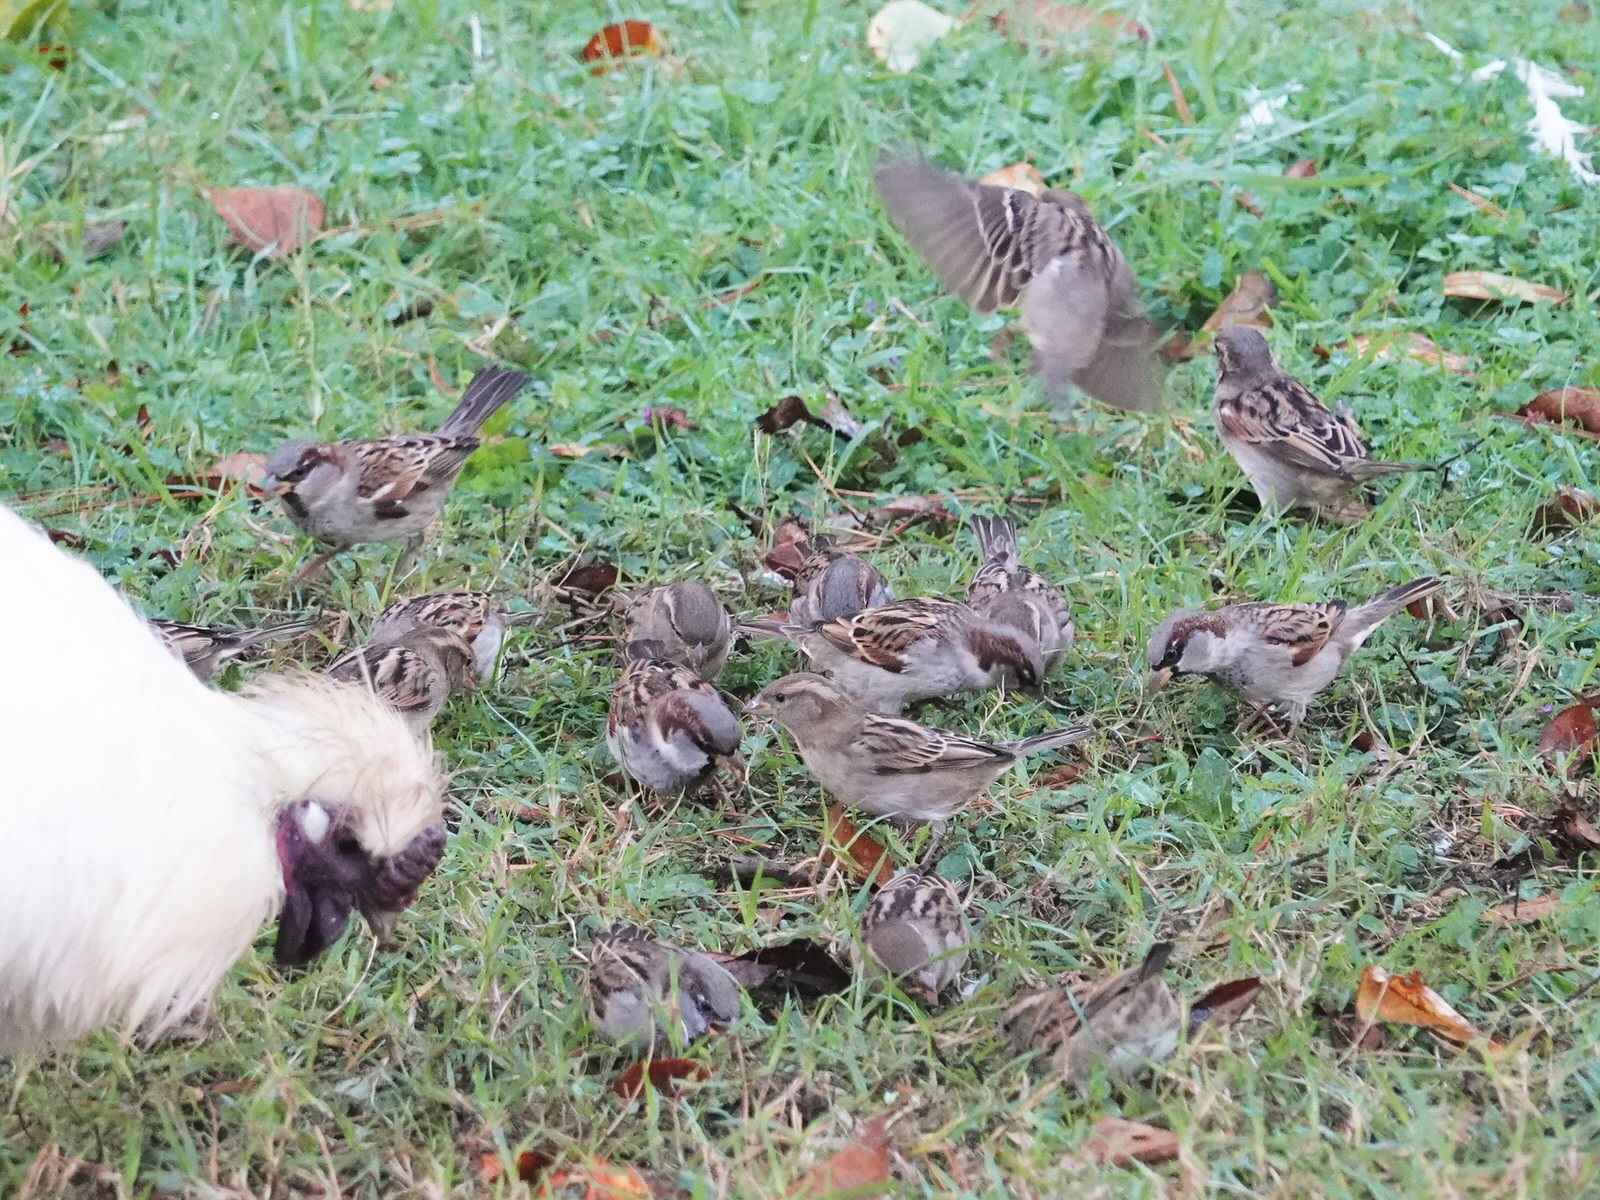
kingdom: Animalia
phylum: Chordata
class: Aves
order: Passeriformes
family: Passeridae
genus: Passer
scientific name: Passer domesticus
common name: House sparrow
